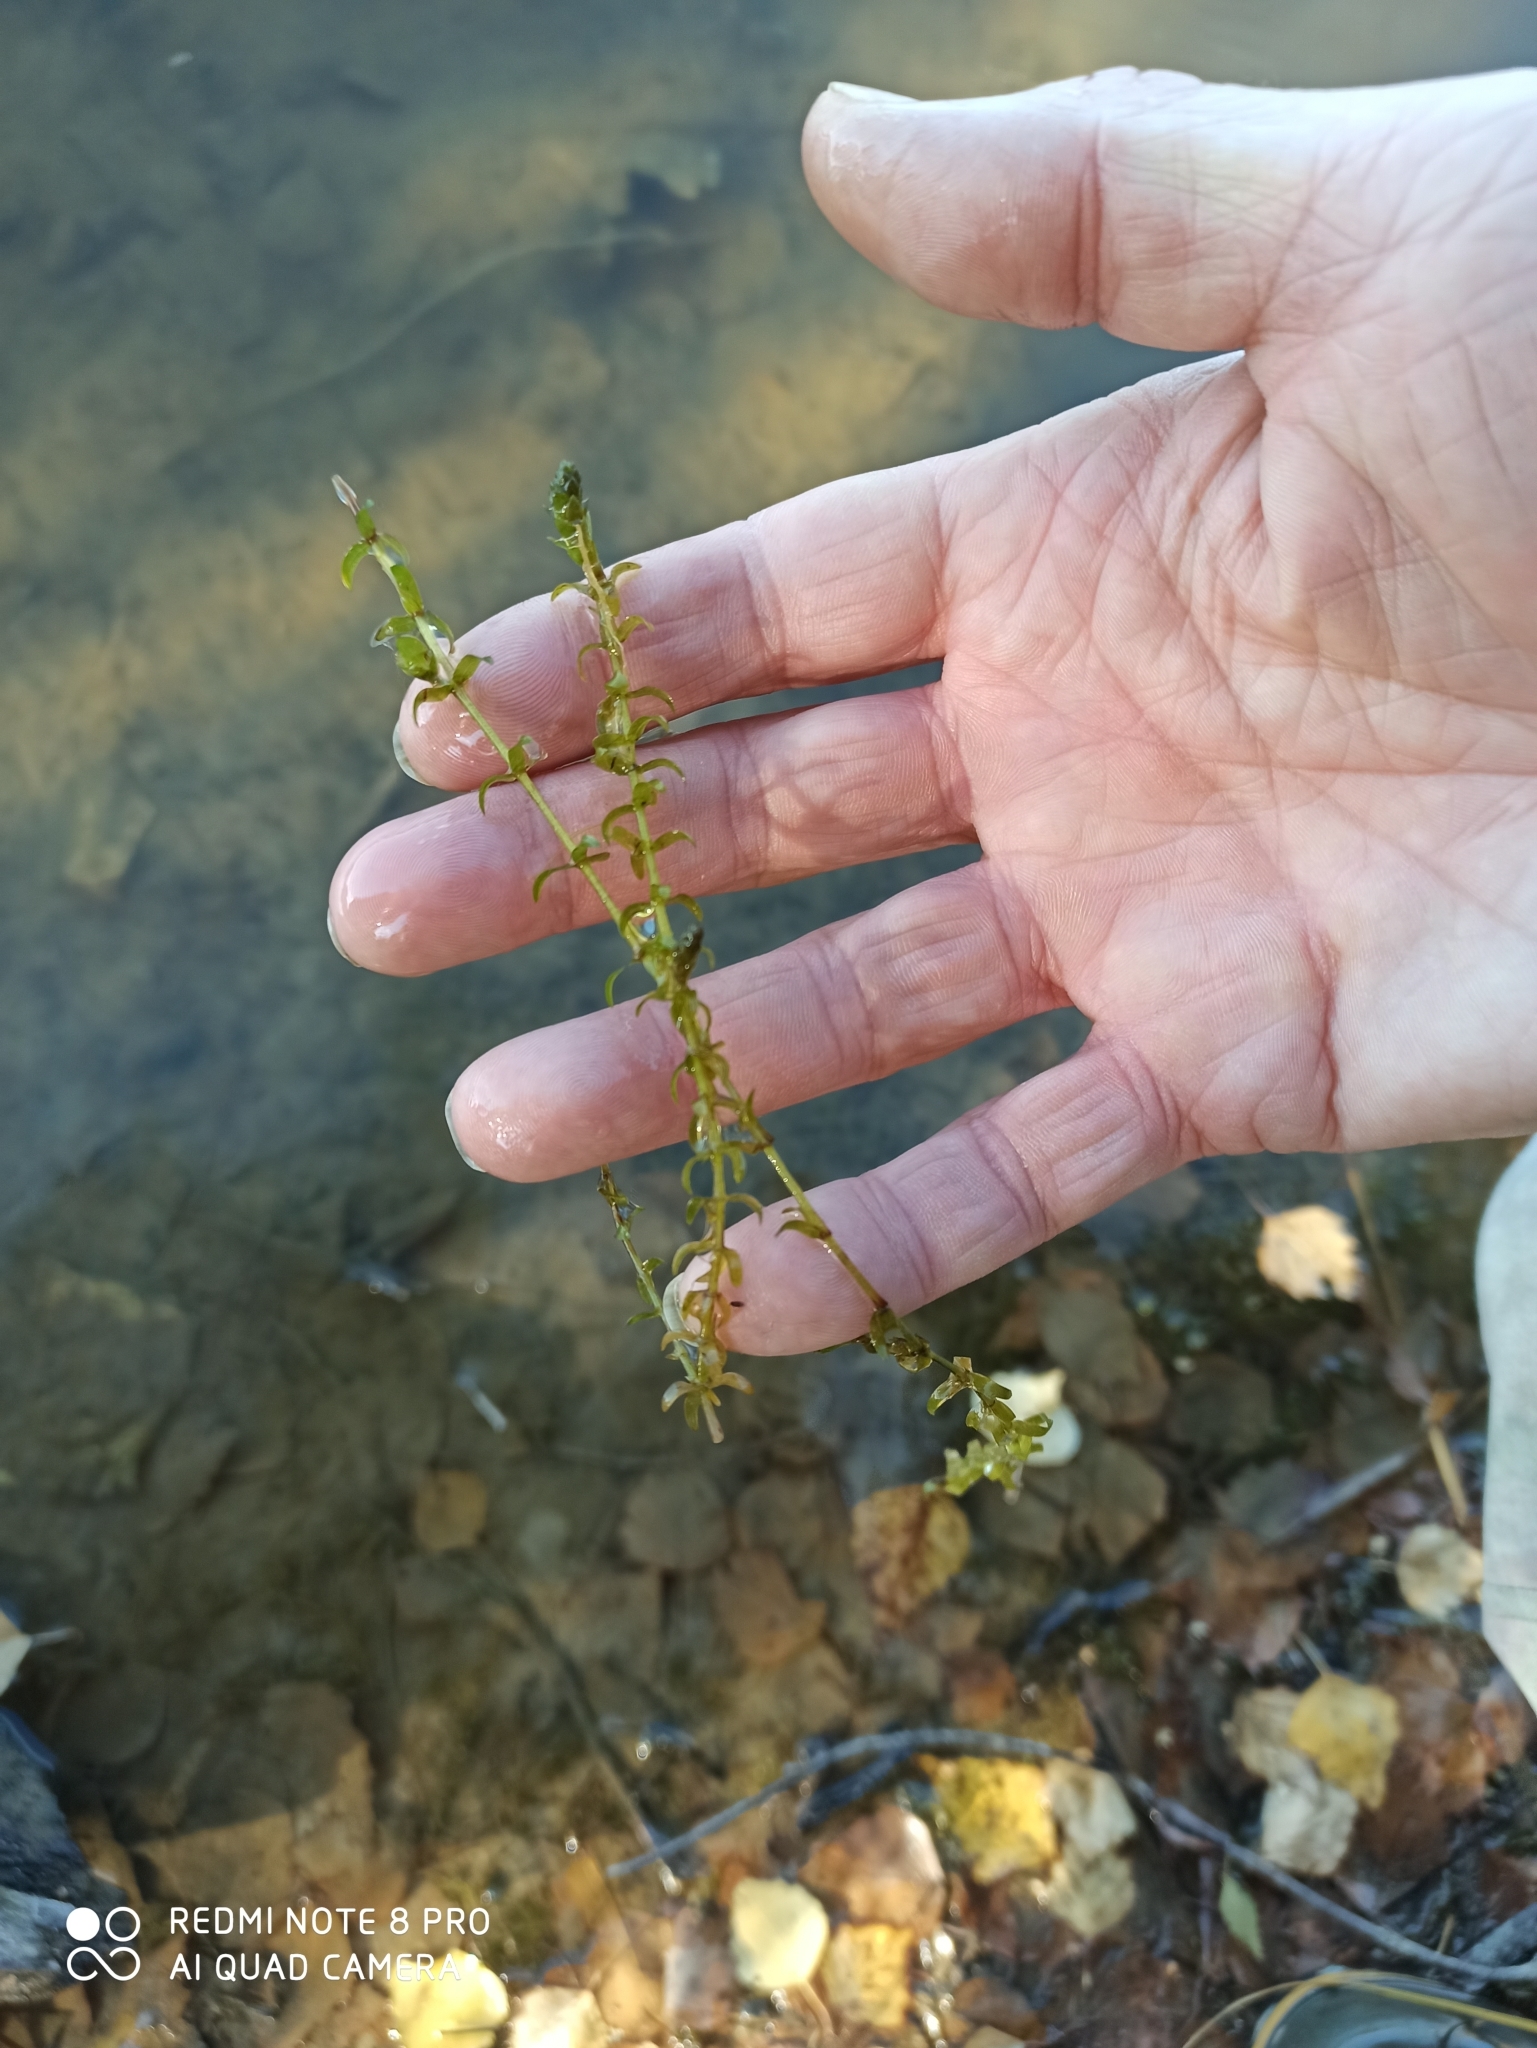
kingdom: Plantae
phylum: Tracheophyta
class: Liliopsida
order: Alismatales
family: Hydrocharitaceae
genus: Elodea
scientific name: Elodea canadensis
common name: Canadian waterweed
